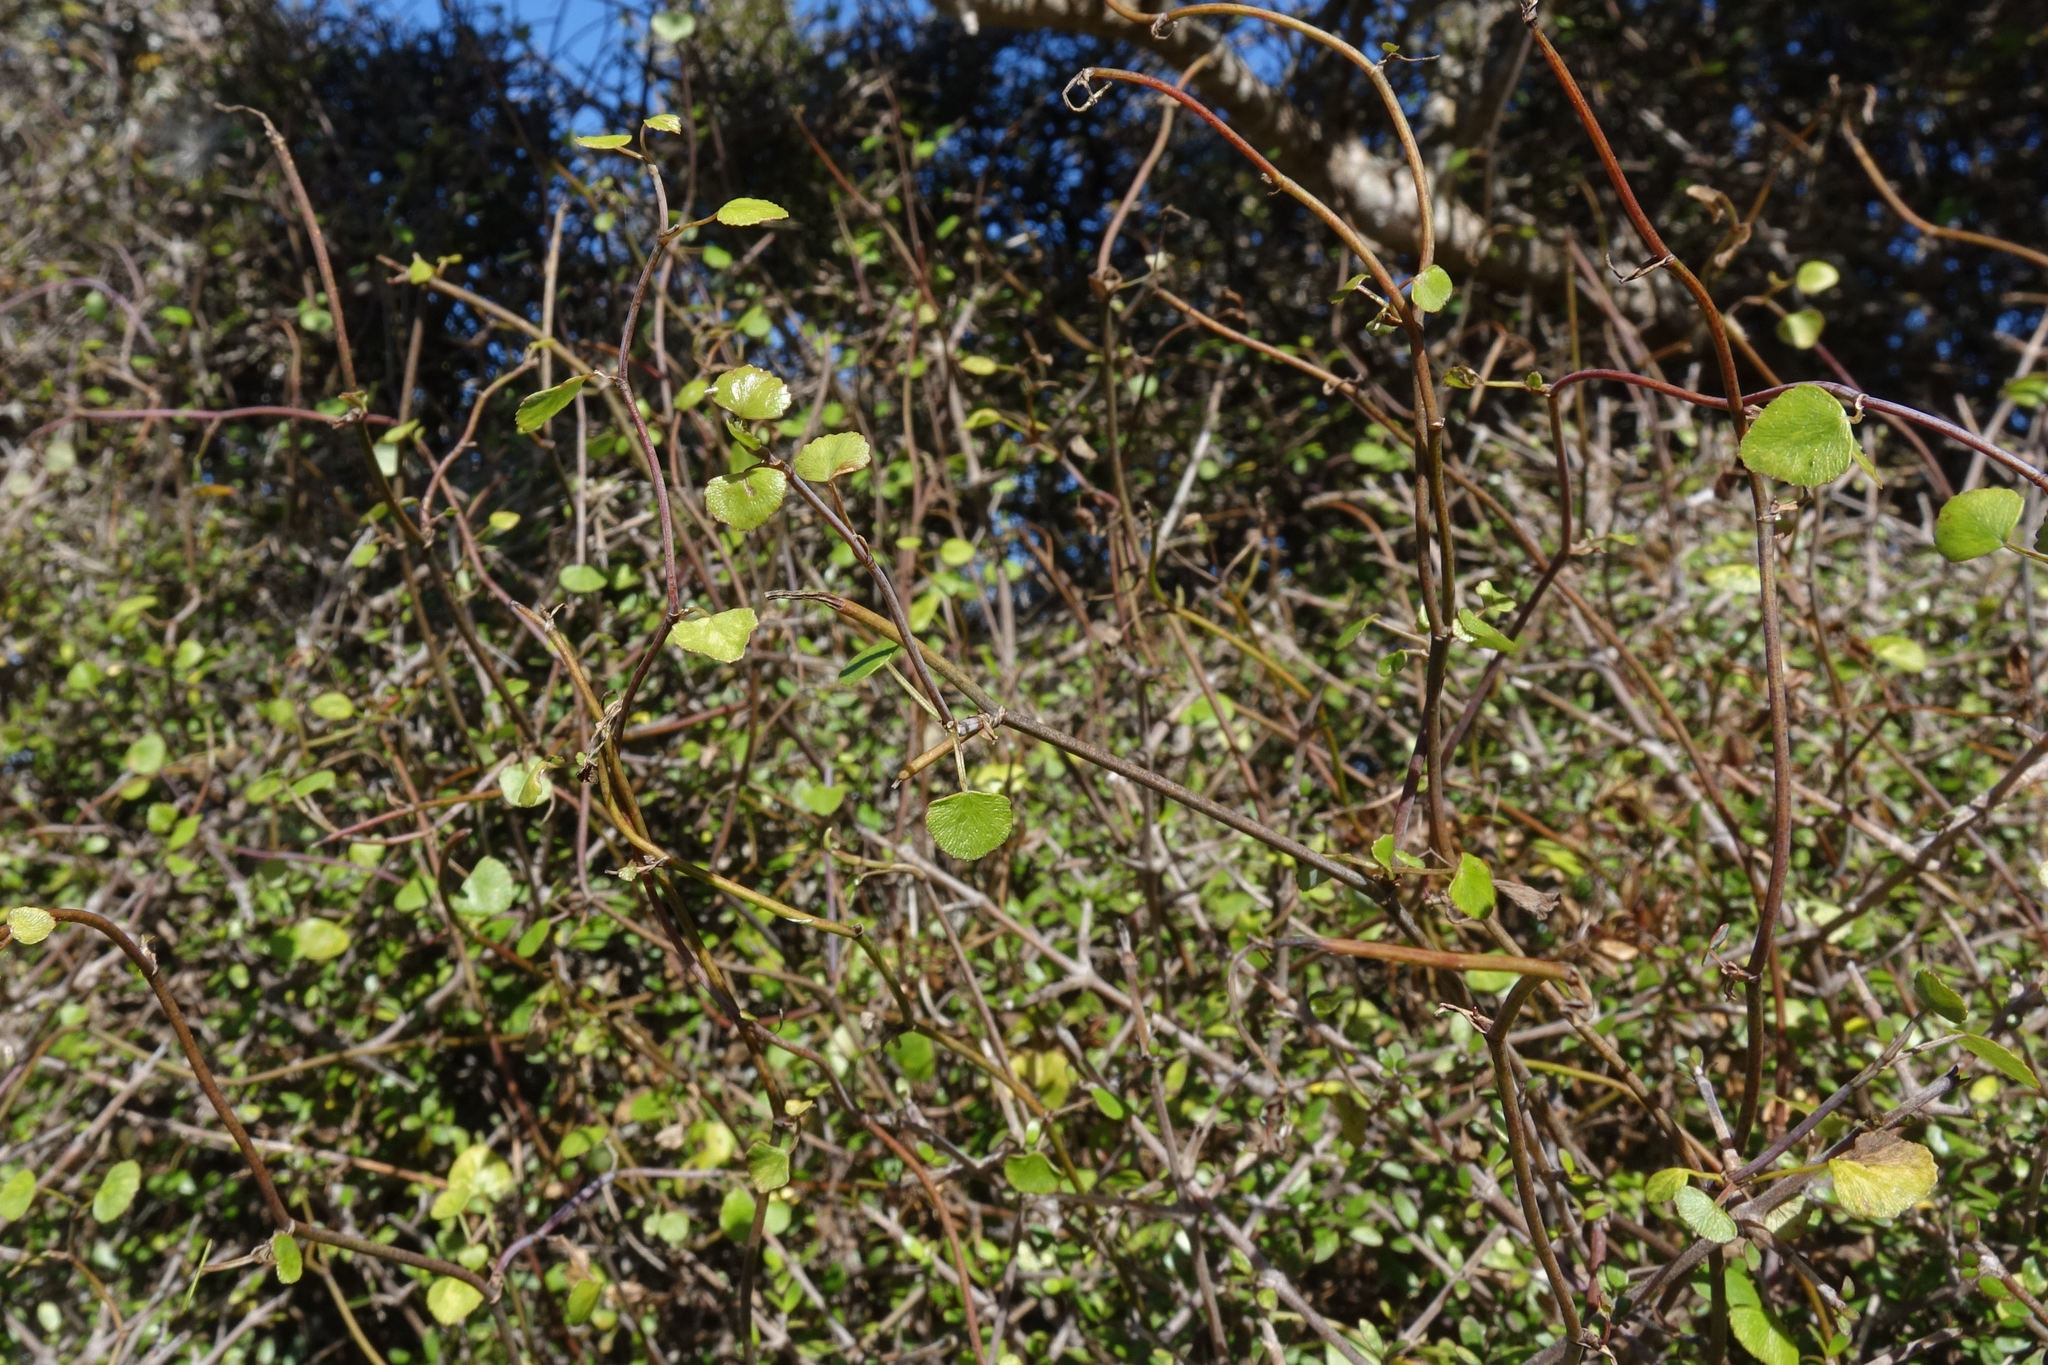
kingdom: Plantae
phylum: Tracheophyta
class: Magnoliopsida
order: Apiales
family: Apiaceae
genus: Scandia
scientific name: Scandia geniculata
